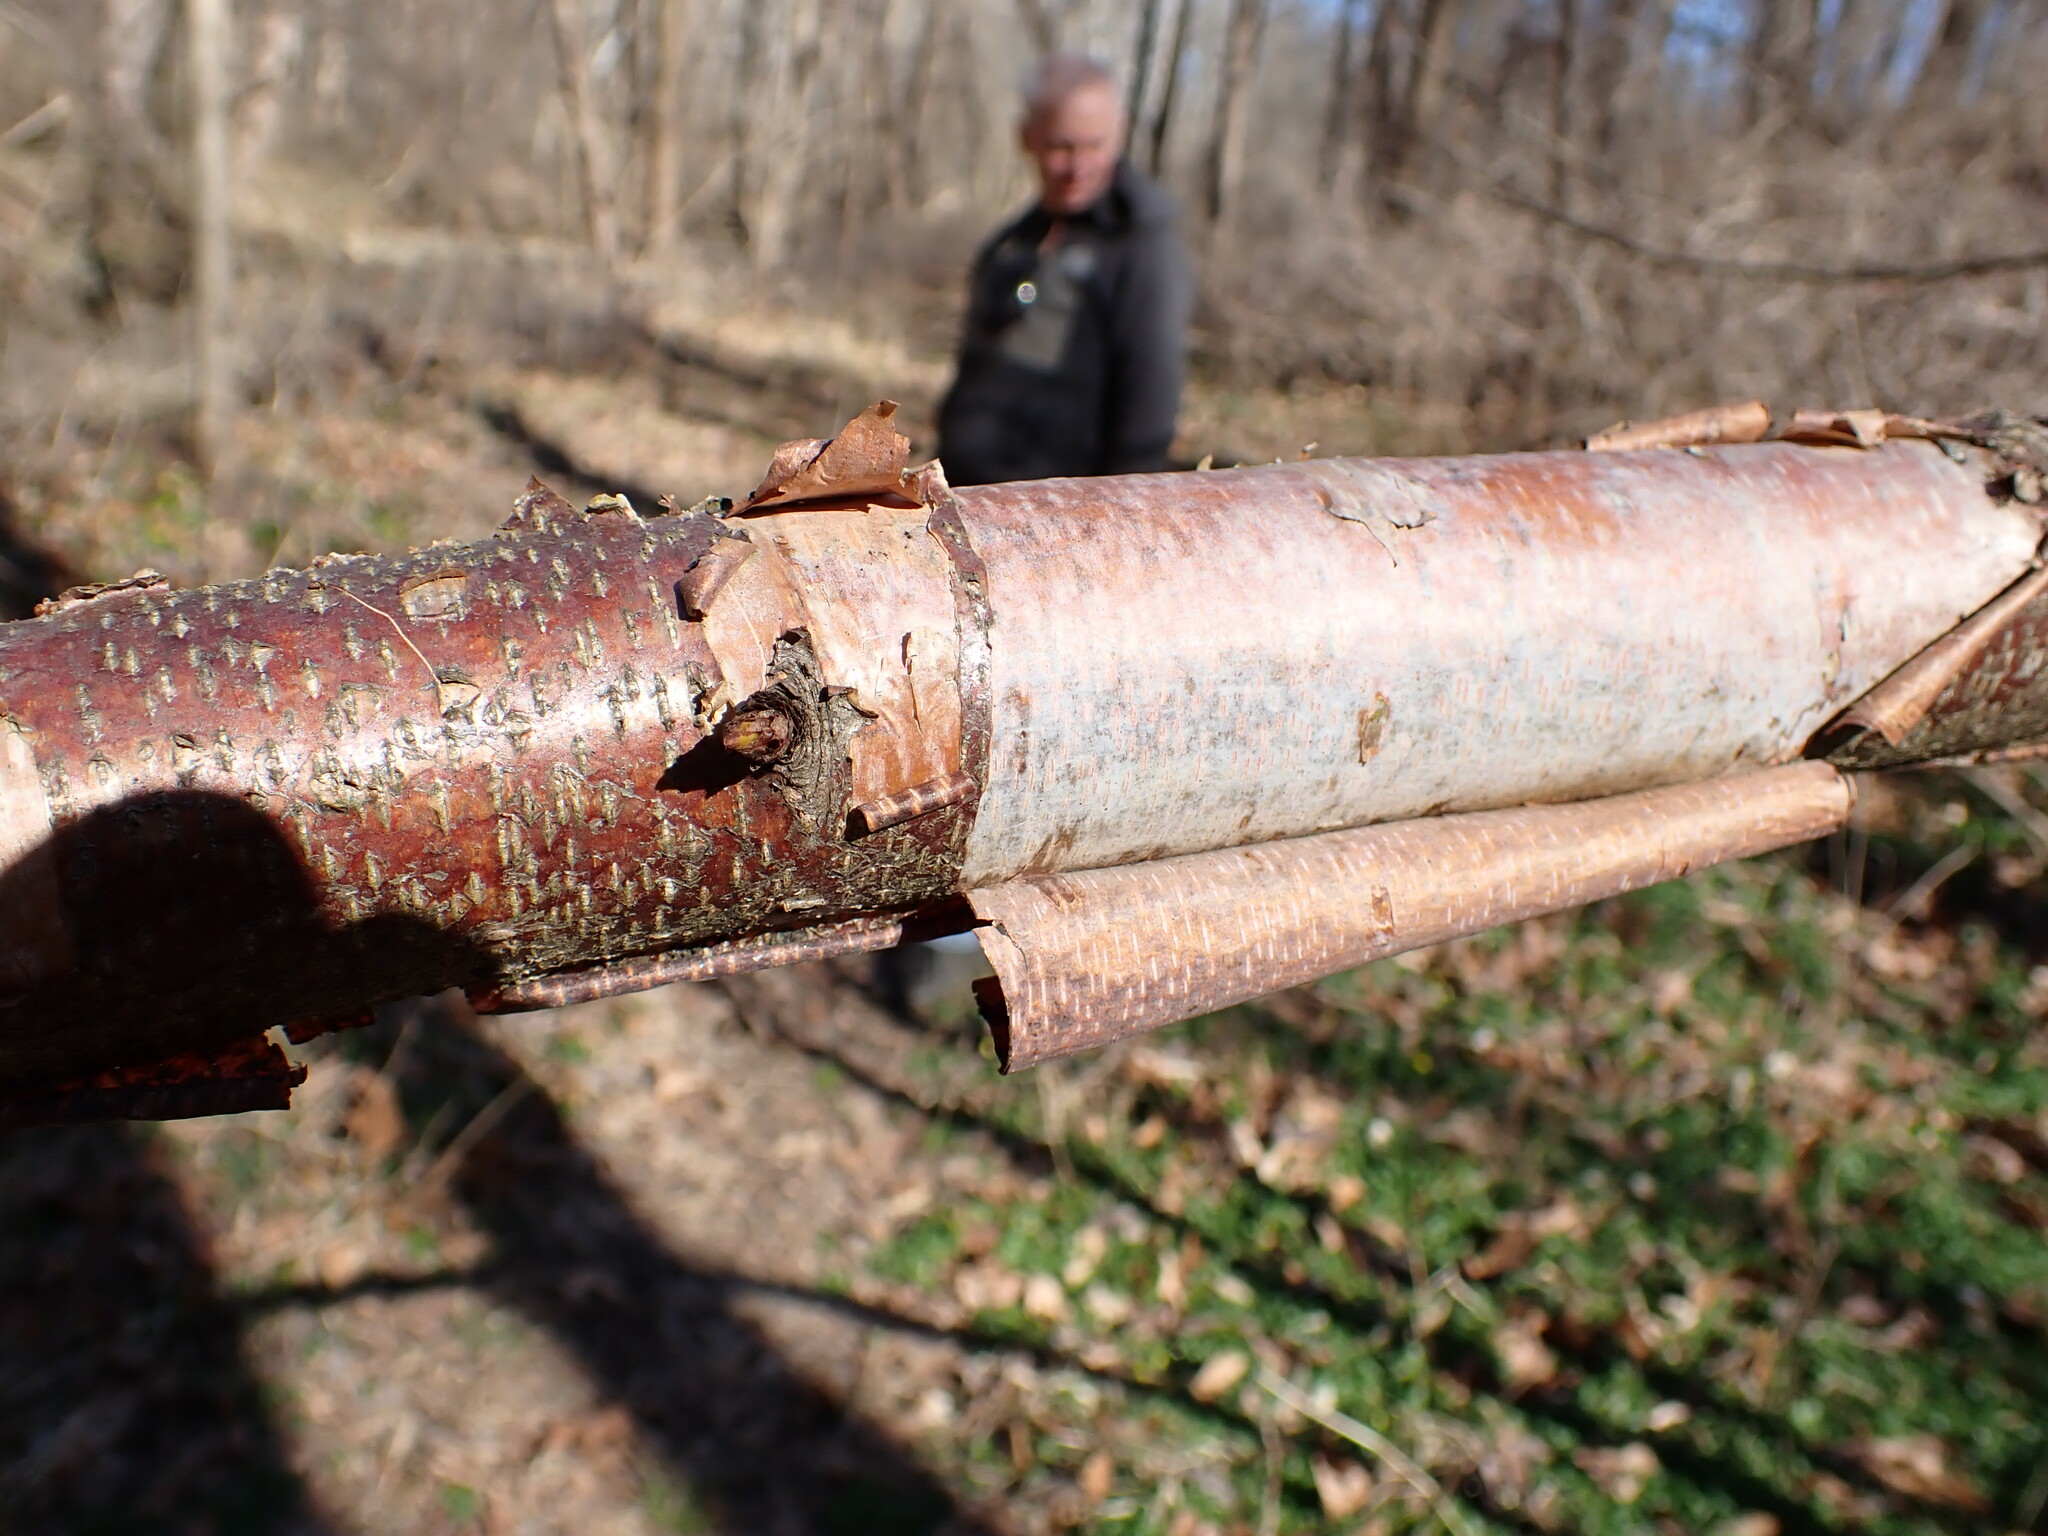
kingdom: Plantae
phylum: Tracheophyta
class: Magnoliopsida
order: Fagales
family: Betulaceae
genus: Betula
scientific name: Betula nigra
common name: Black birch
